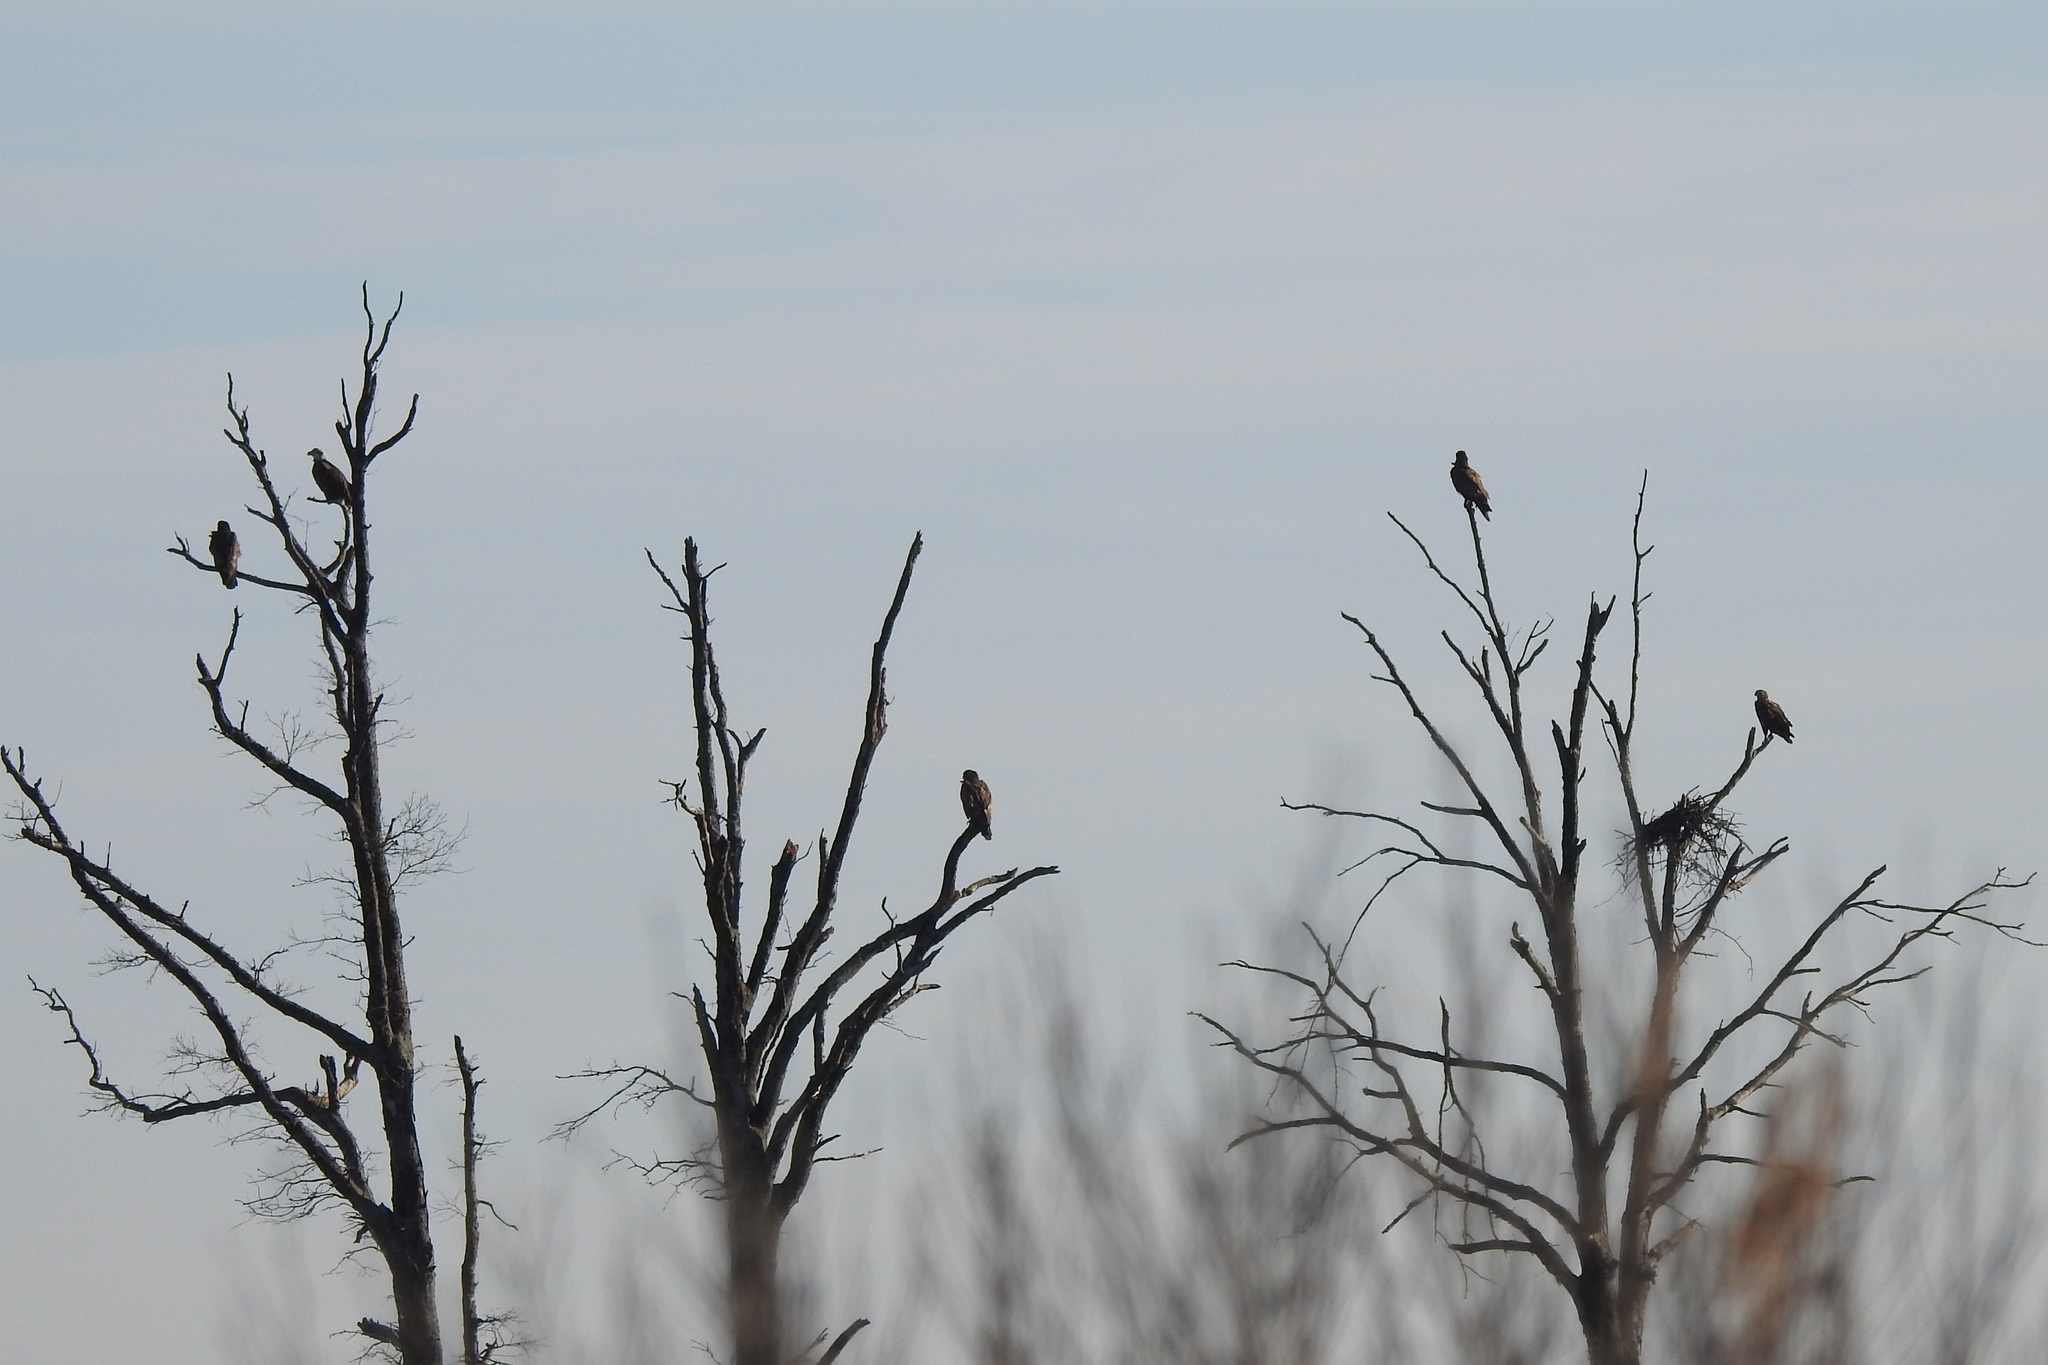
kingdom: Animalia
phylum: Chordata
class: Aves
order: Accipitriformes
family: Accipitridae
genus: Haliaeetus
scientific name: Haliaeetus leucocephalus
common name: Bald eagle
